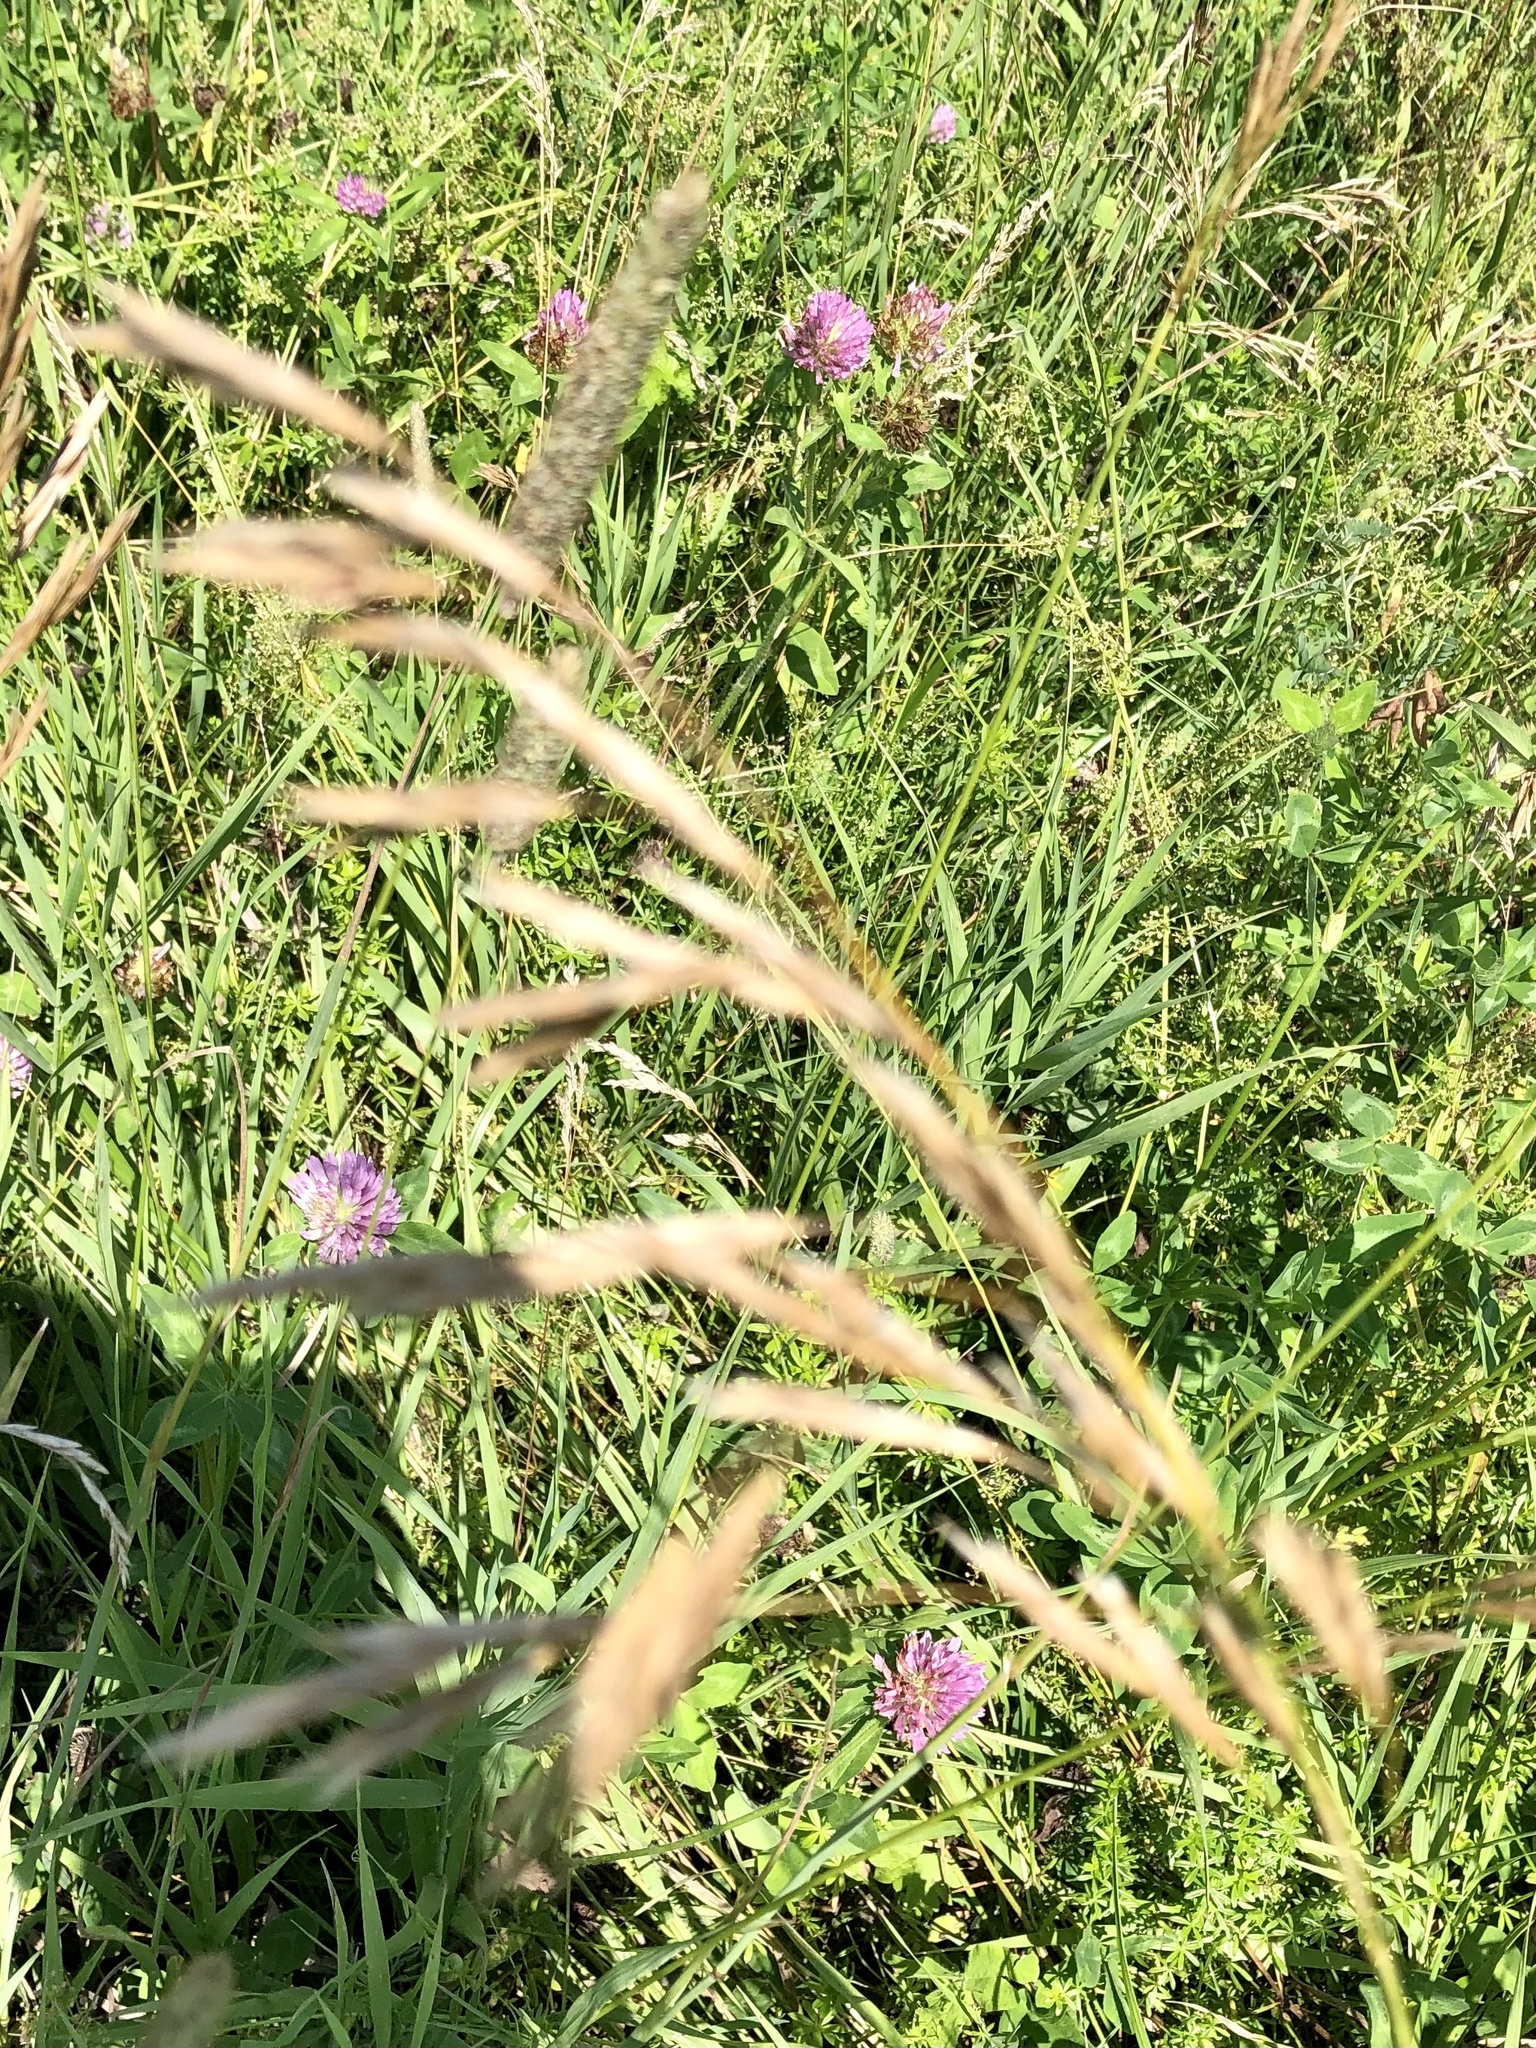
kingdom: Plantae
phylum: Tracheophyta
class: Liliopsida
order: Poales
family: Poaceae
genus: Bromus
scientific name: Bromus inermis
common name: Smooth brome
